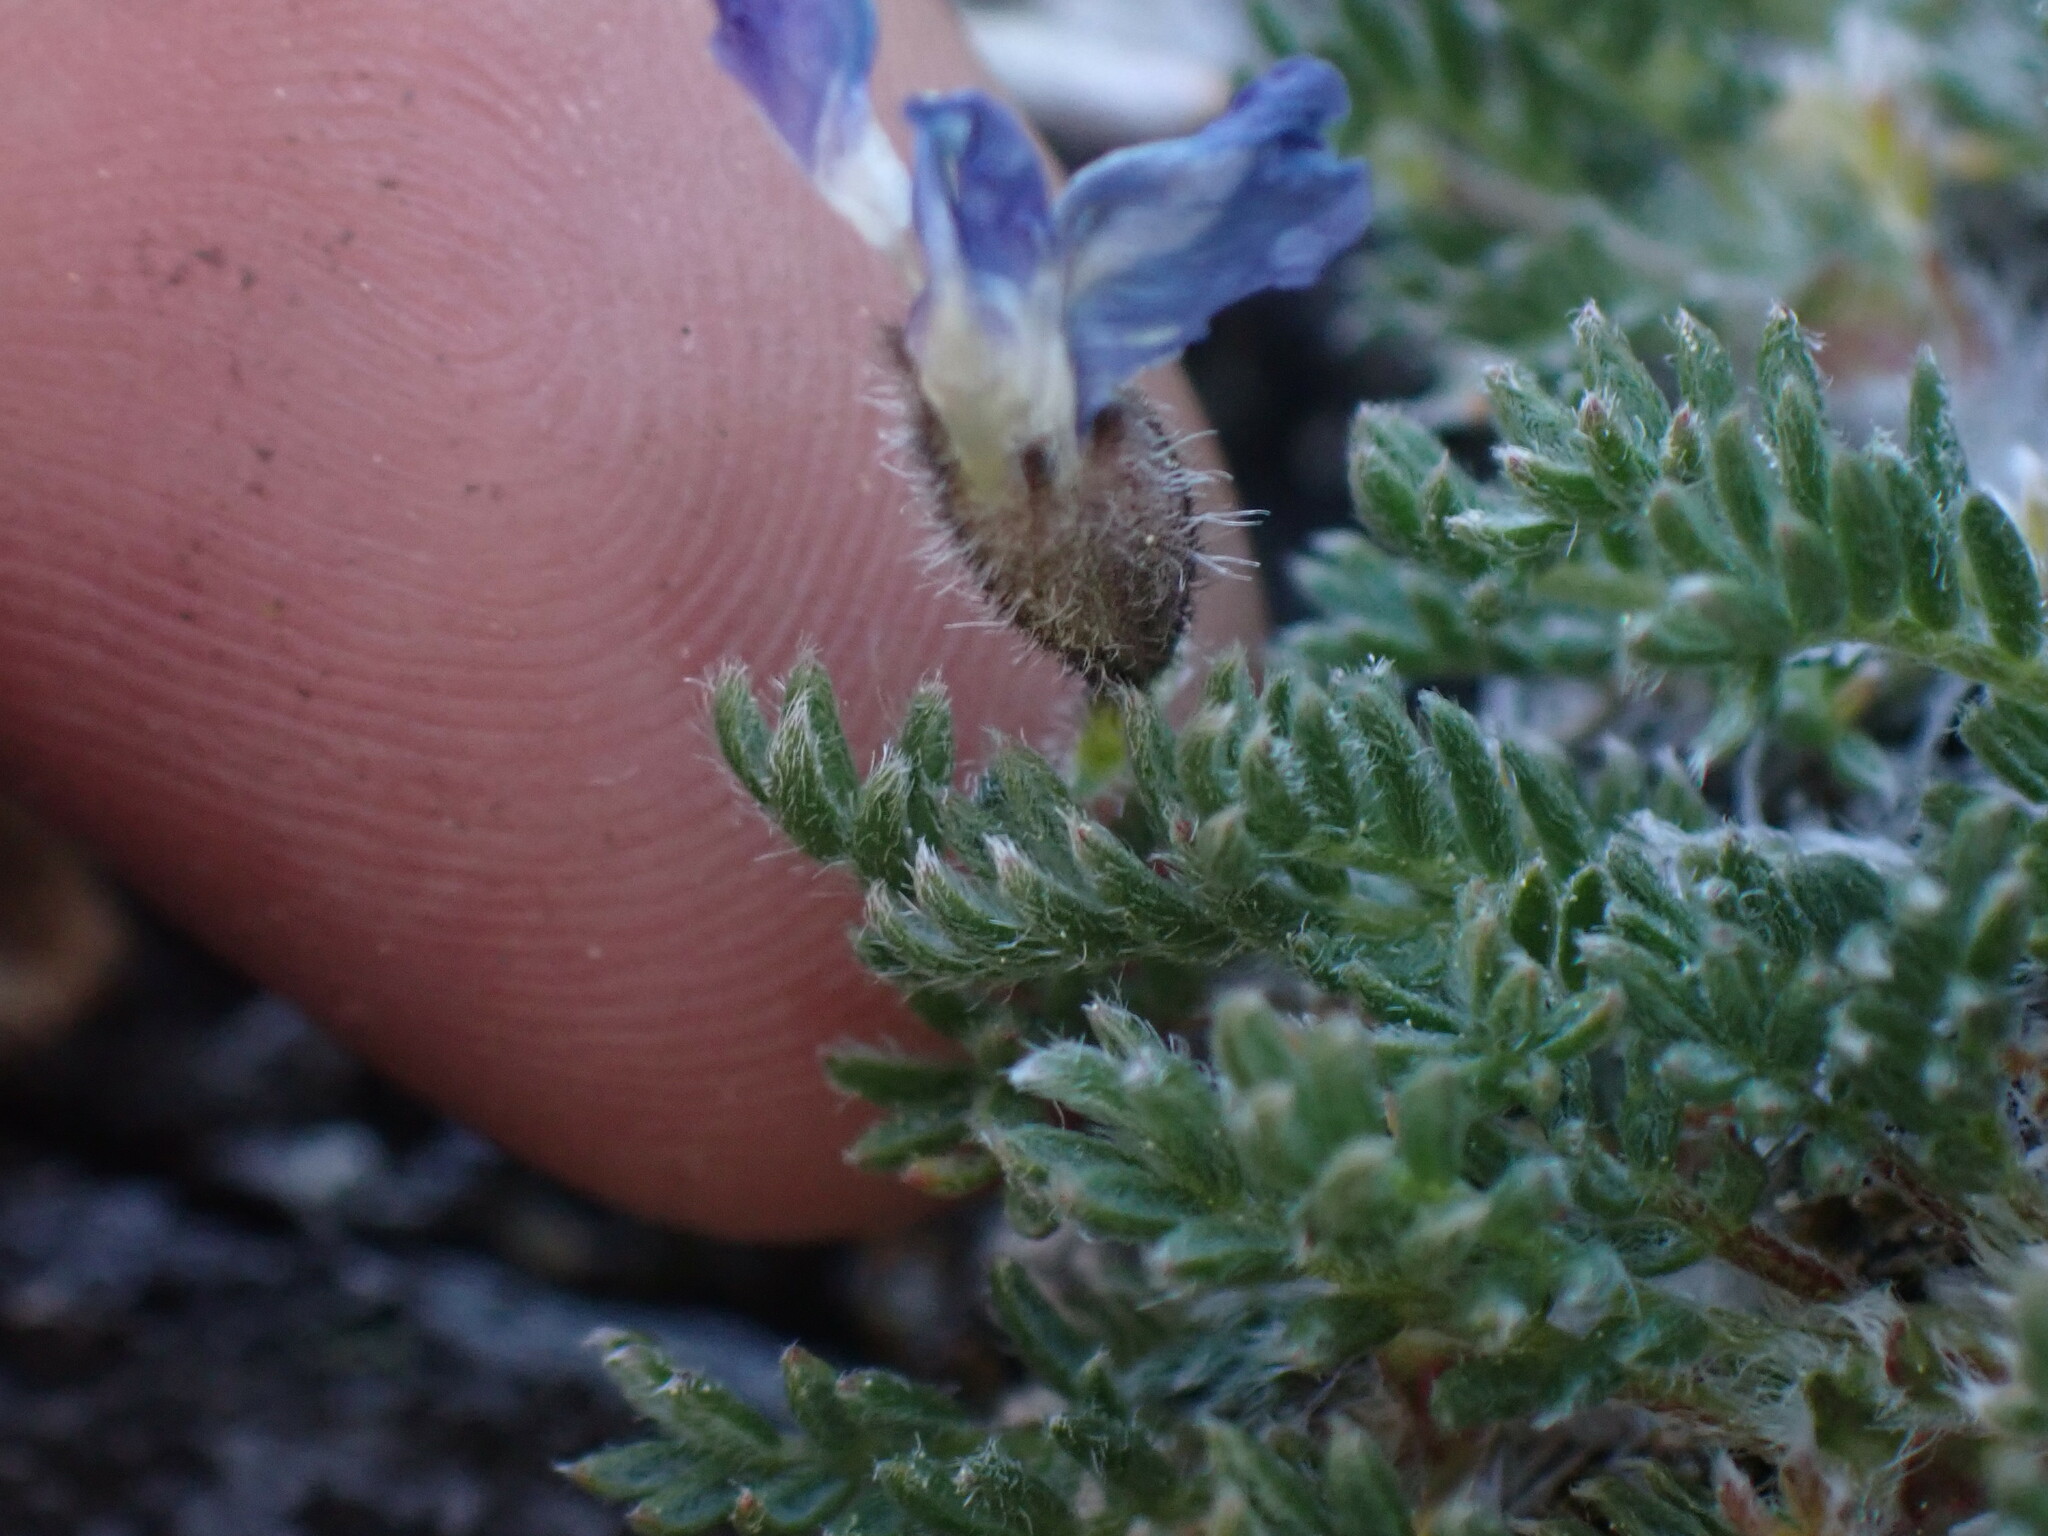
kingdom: Plantae
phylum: Tracheophyta
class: Magnoliopsida
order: Fabales
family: Fabaceae
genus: Oxytropis
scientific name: Oxytropis podocarpa
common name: Gray's oxytrope
